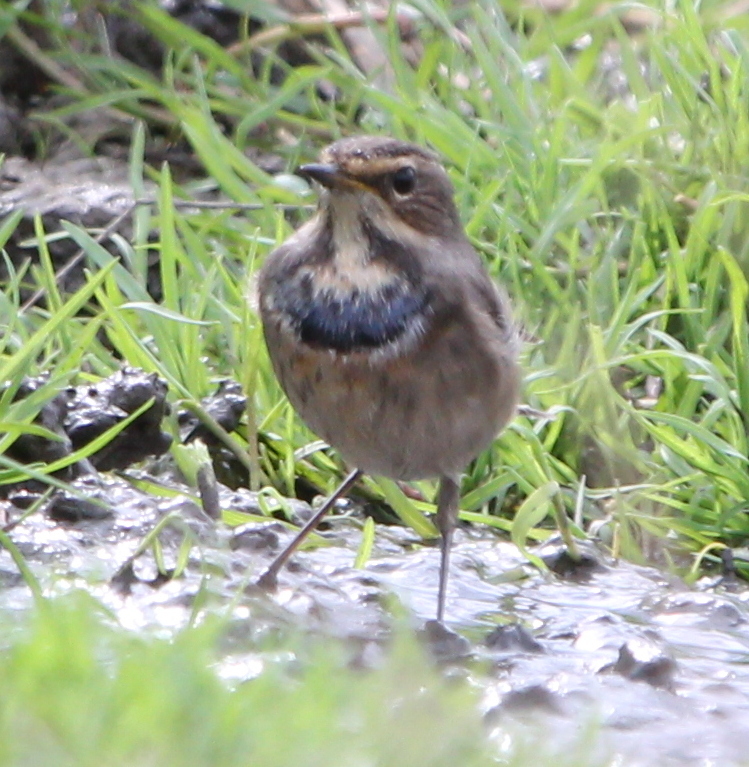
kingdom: Animalia
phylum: Chordata
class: Aves
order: Passeriformes
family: Muscicapidae
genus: Luscinia
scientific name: Luscinia svecica
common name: Bluethroat
